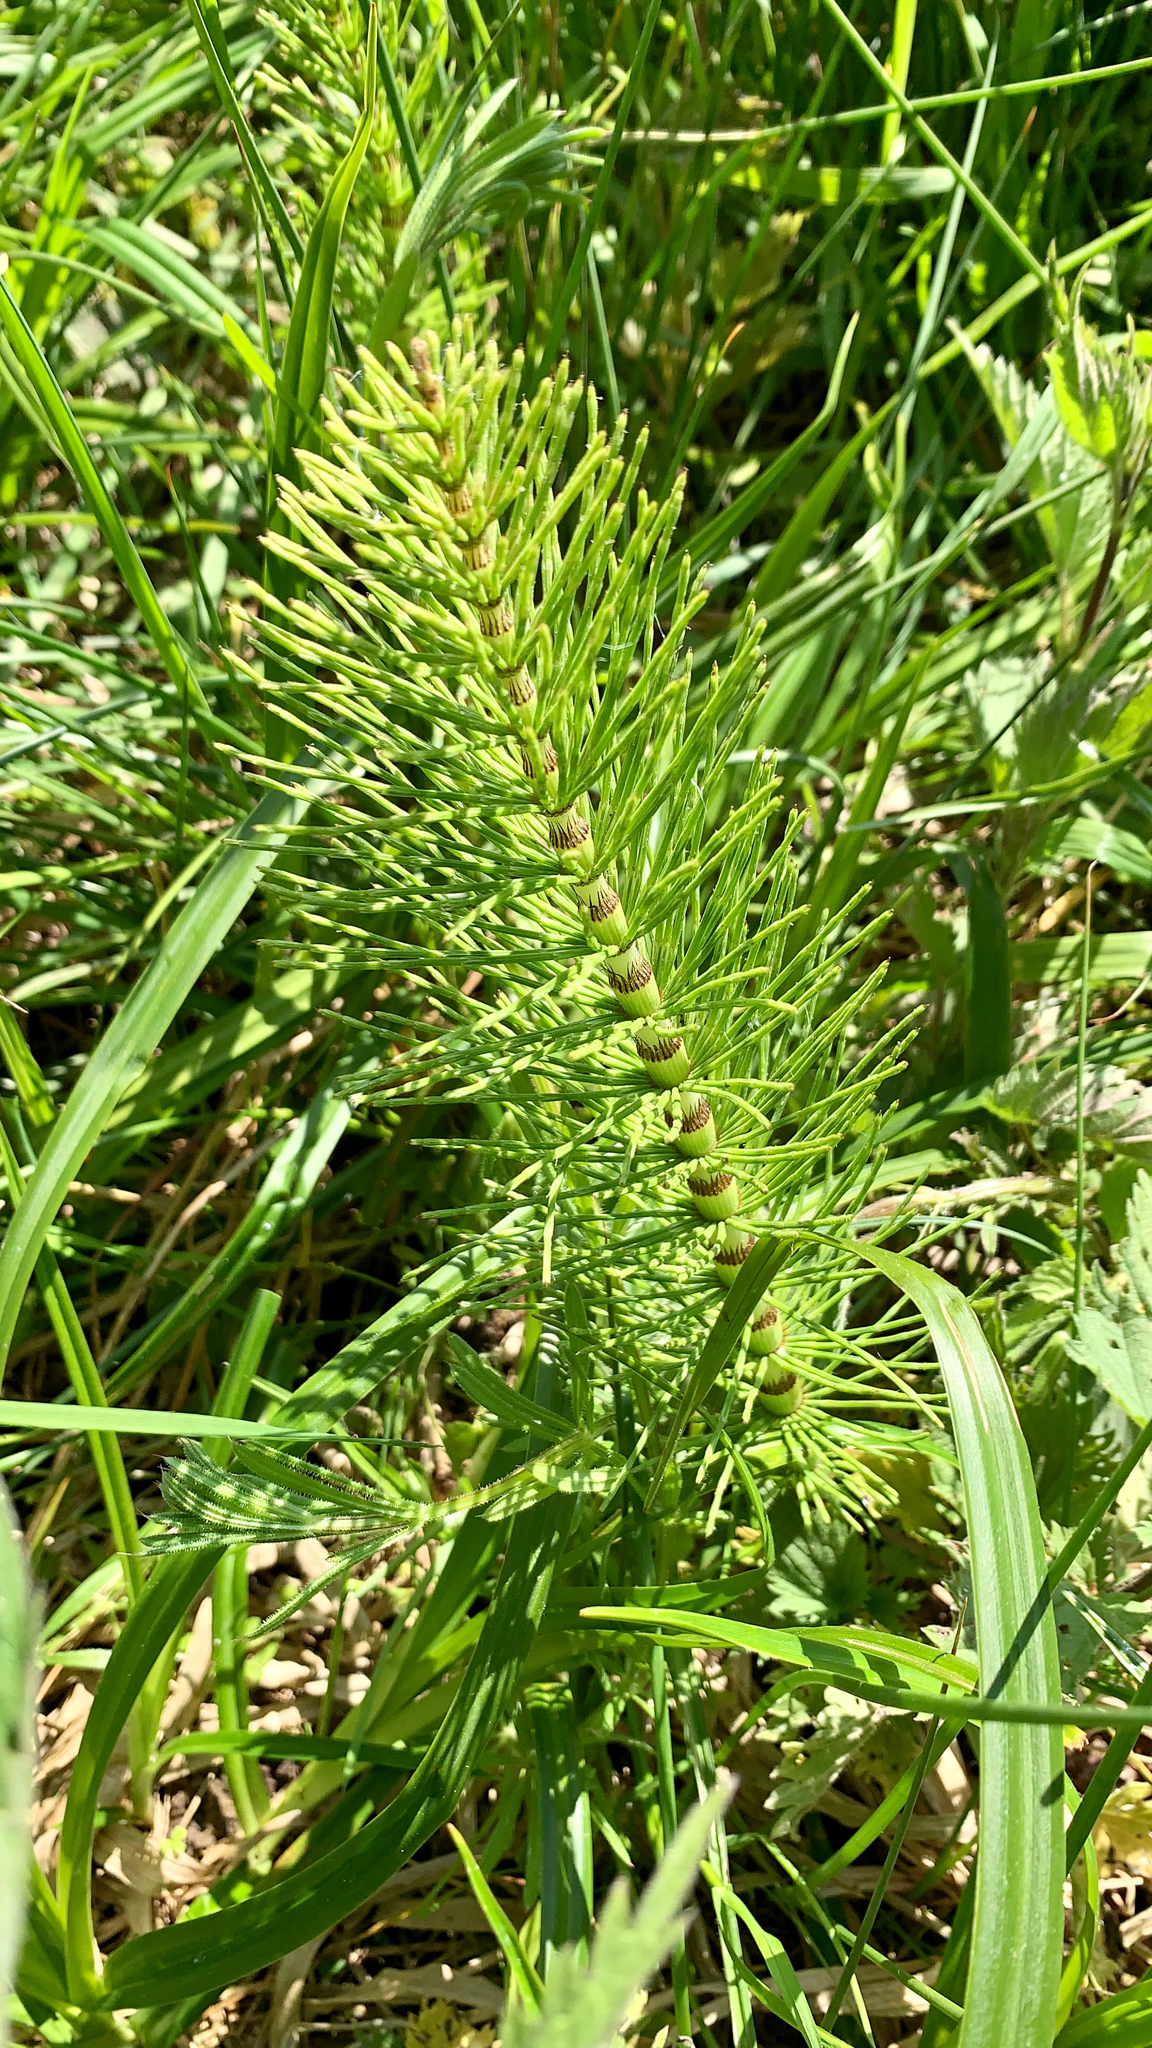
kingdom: Plantae
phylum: Tracheophyta
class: Polypodiopsida
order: Equisetales
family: Equisetaceae
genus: Equisetum
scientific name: Equisetum telmateia
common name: Great horsetail
